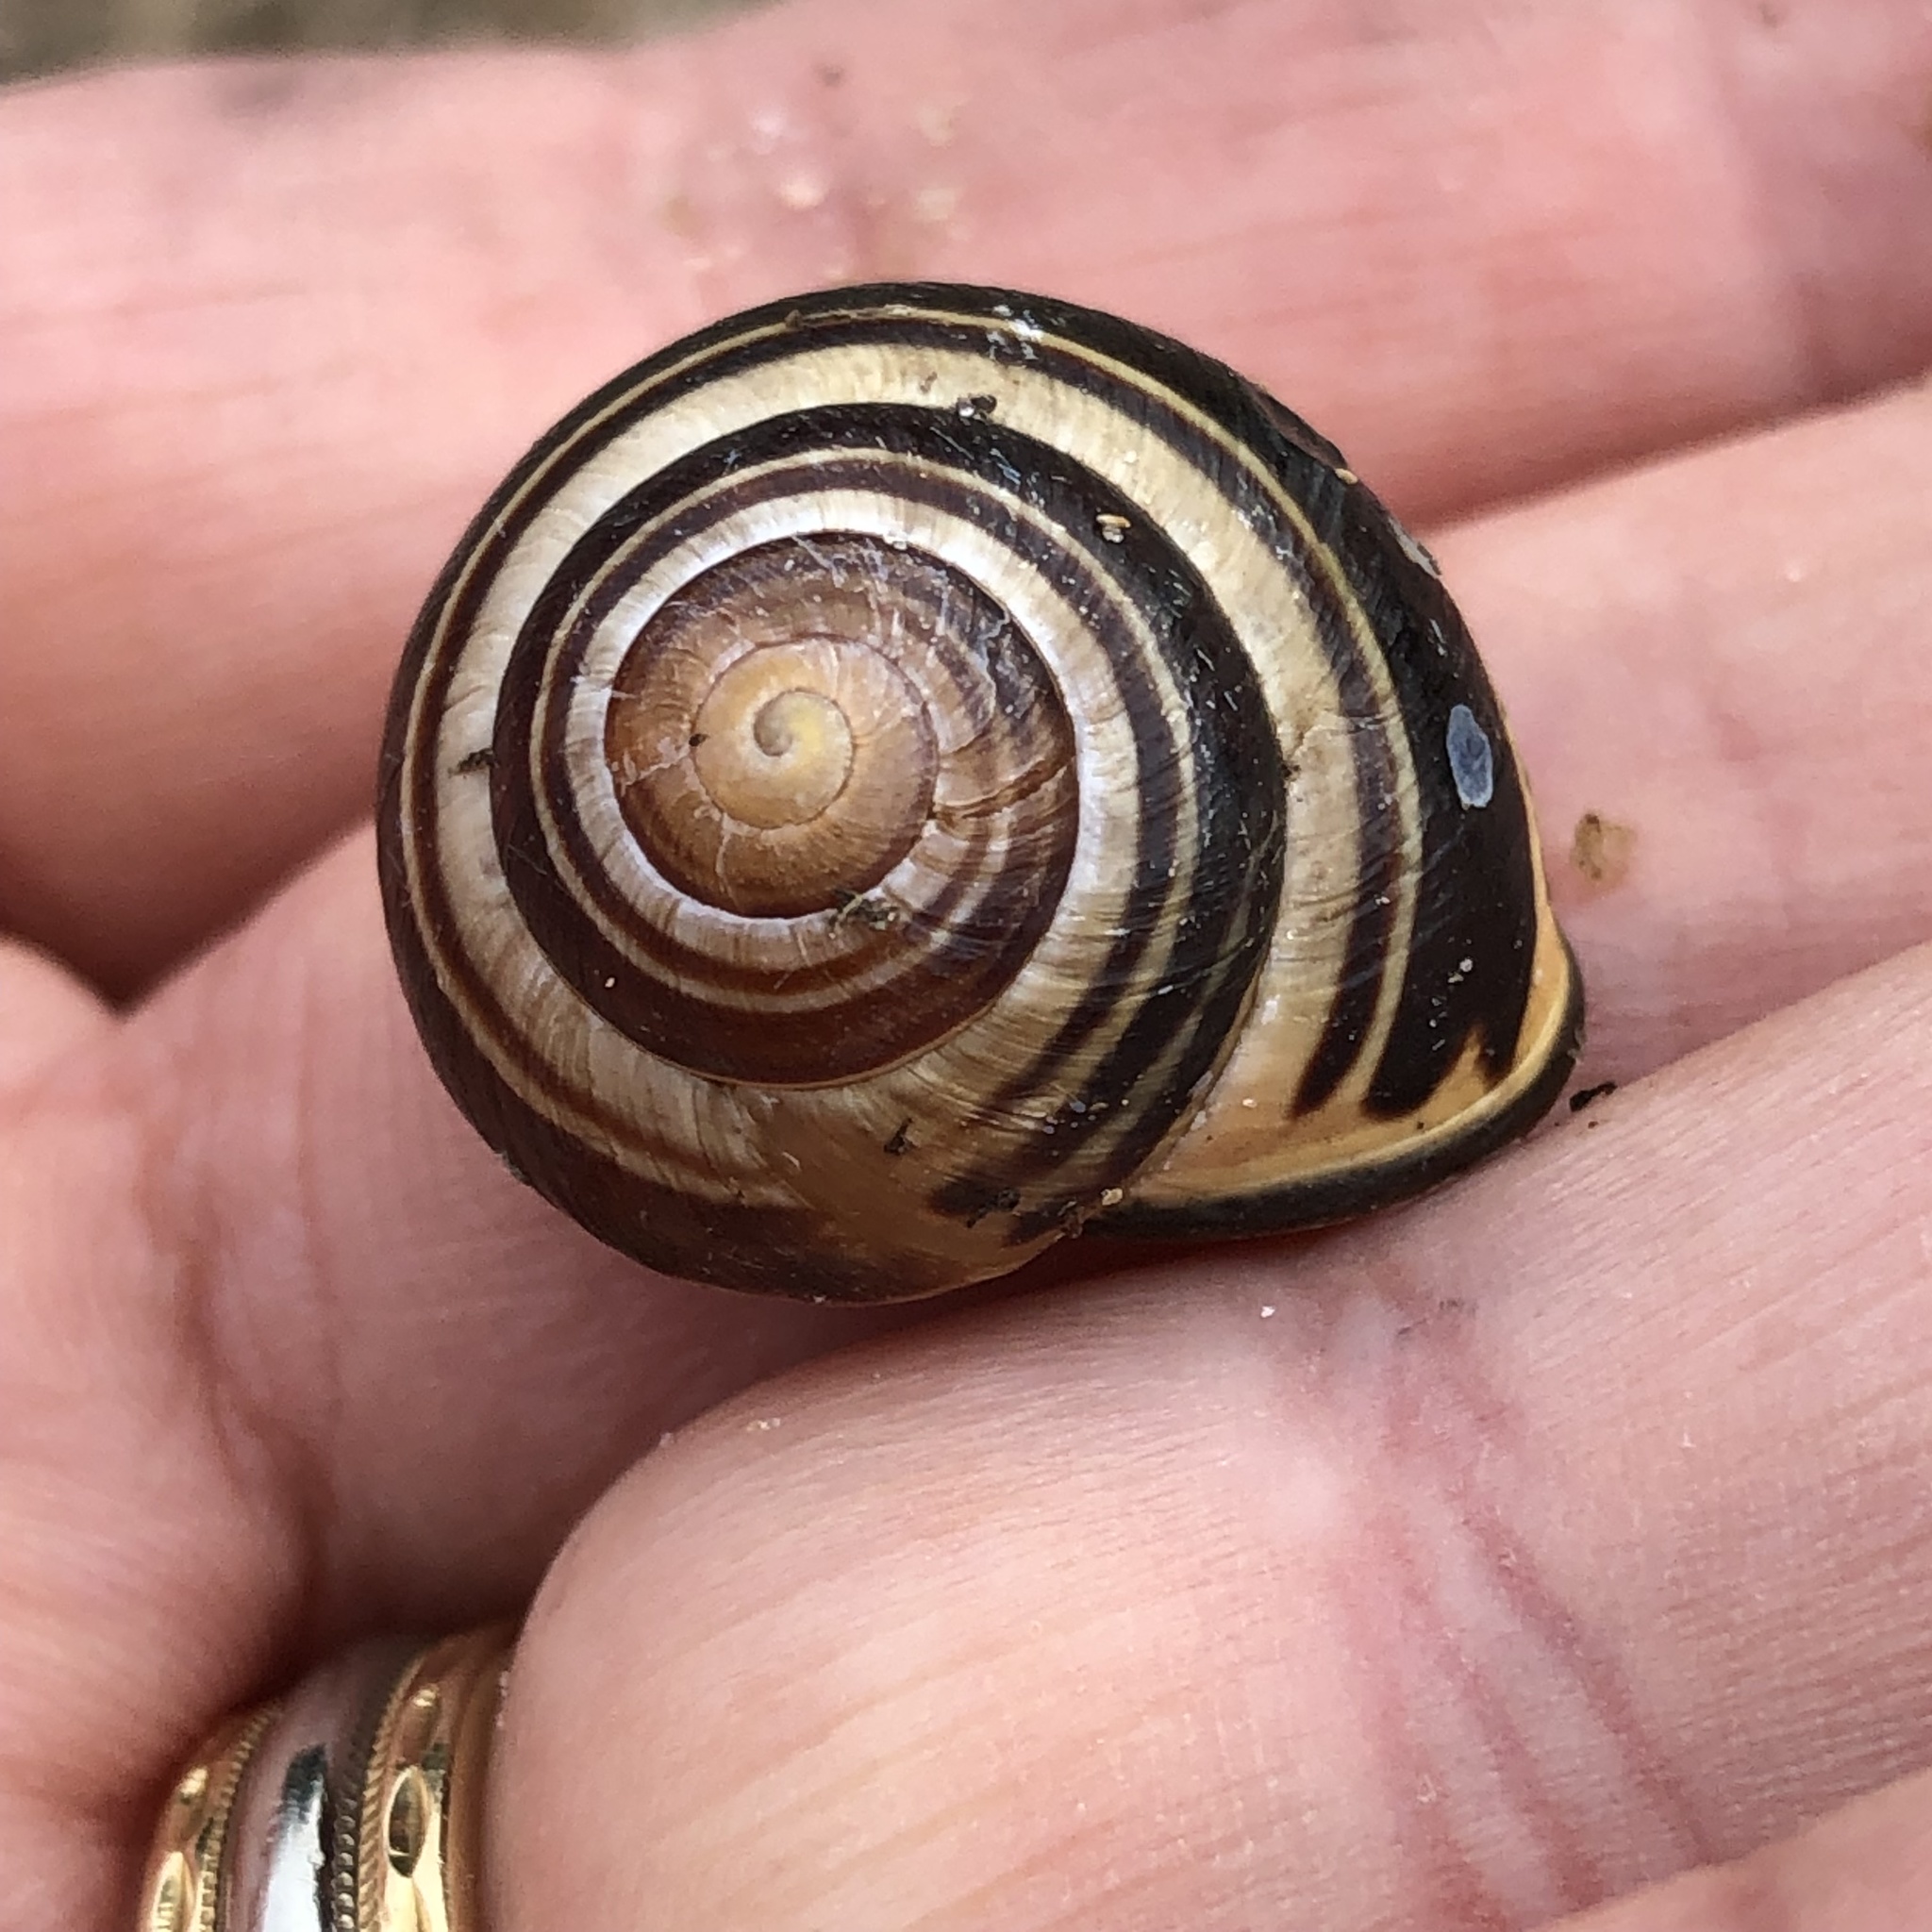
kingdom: Animalia
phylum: Mollusca
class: Gastropoda
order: Stylommatophora
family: Helicidae
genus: Cepaea
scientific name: Cepaea nemoralis
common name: Grovesnail
